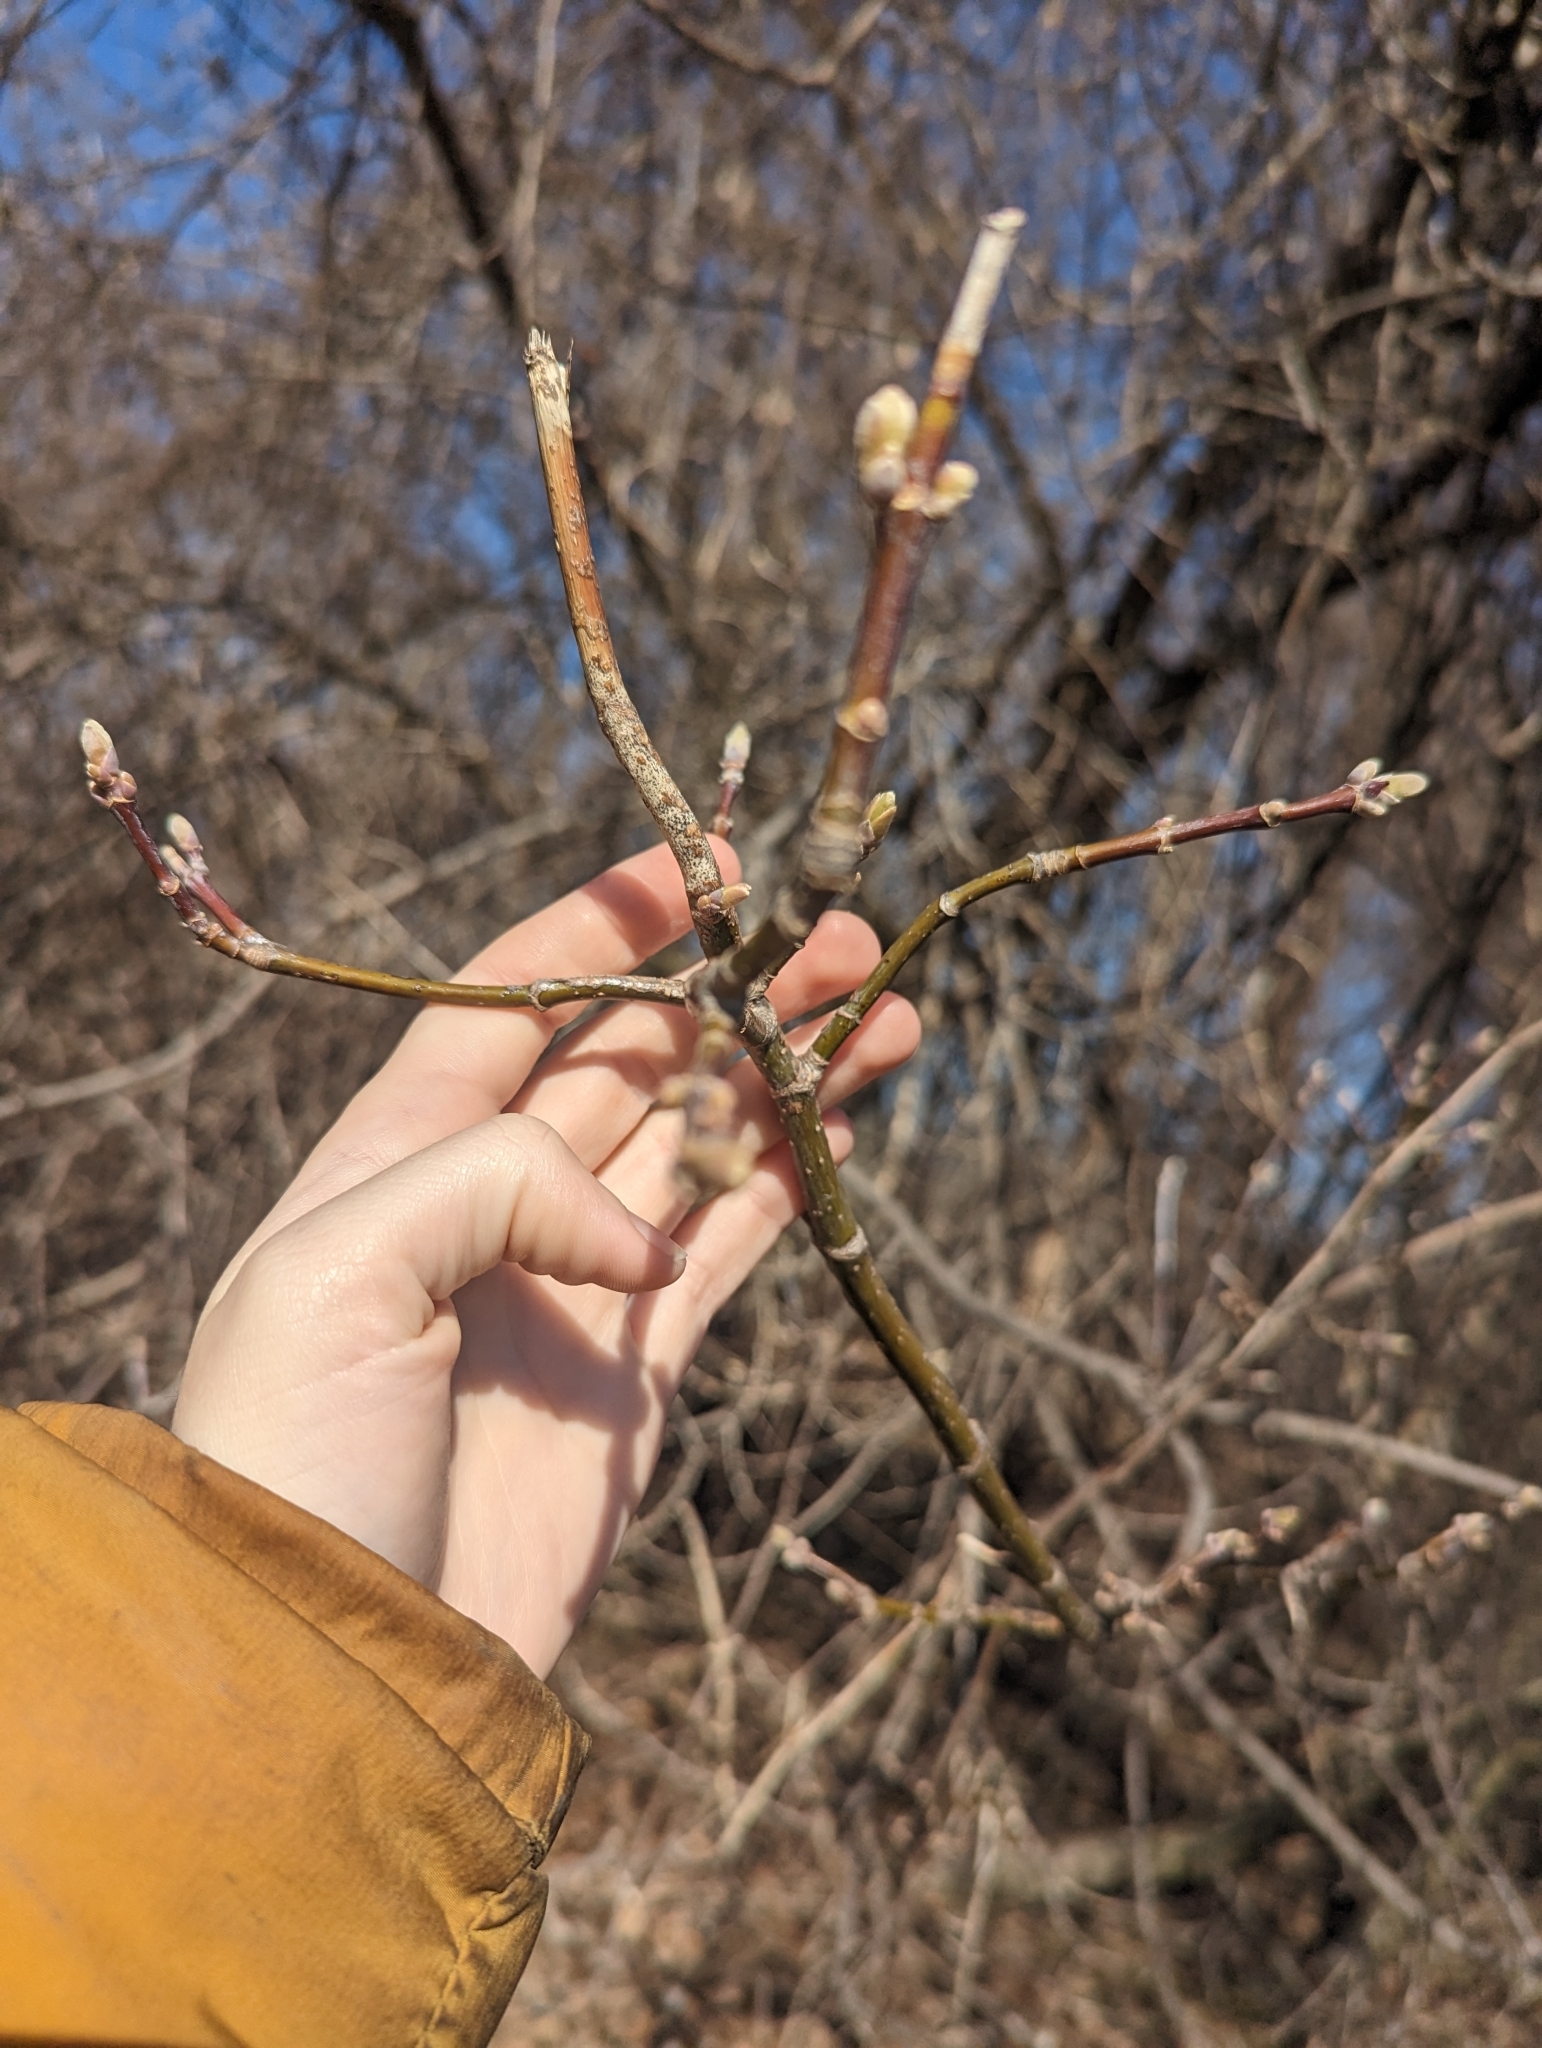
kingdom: Plantae
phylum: Tracheophyta
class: Magnoliopsida
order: Sapindales
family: Sapindaceae
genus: Acer
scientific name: Acer negundo
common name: Ashleaf maple
